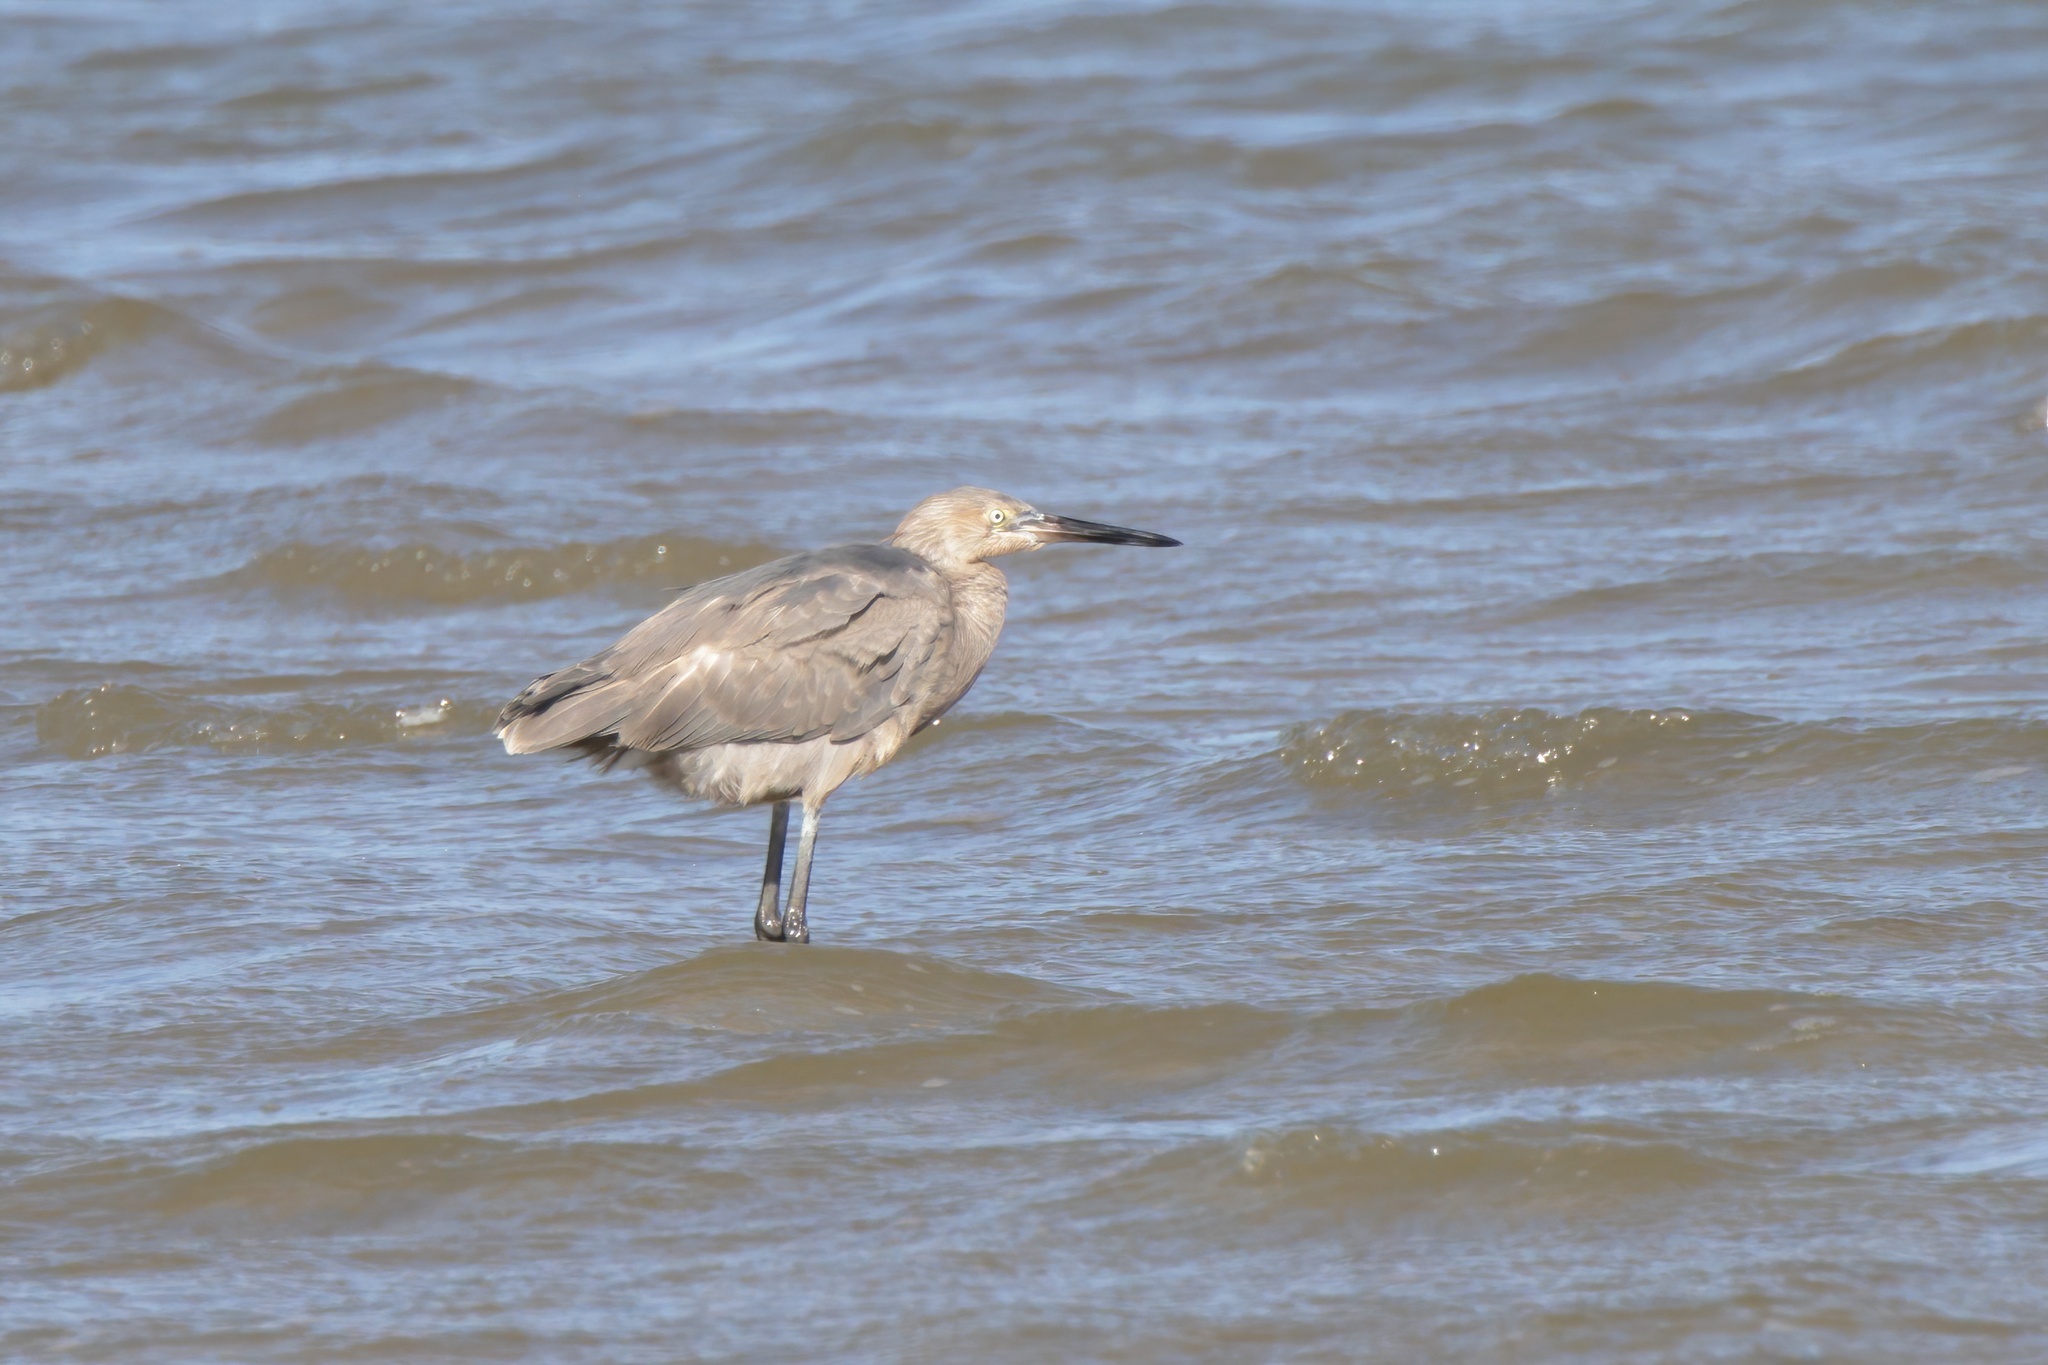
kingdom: Animalia
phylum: Chordata
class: Aves
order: Pelecaniformes
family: Ardeidae
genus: Egretta
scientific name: Egretta rufescens
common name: Reddish egret
